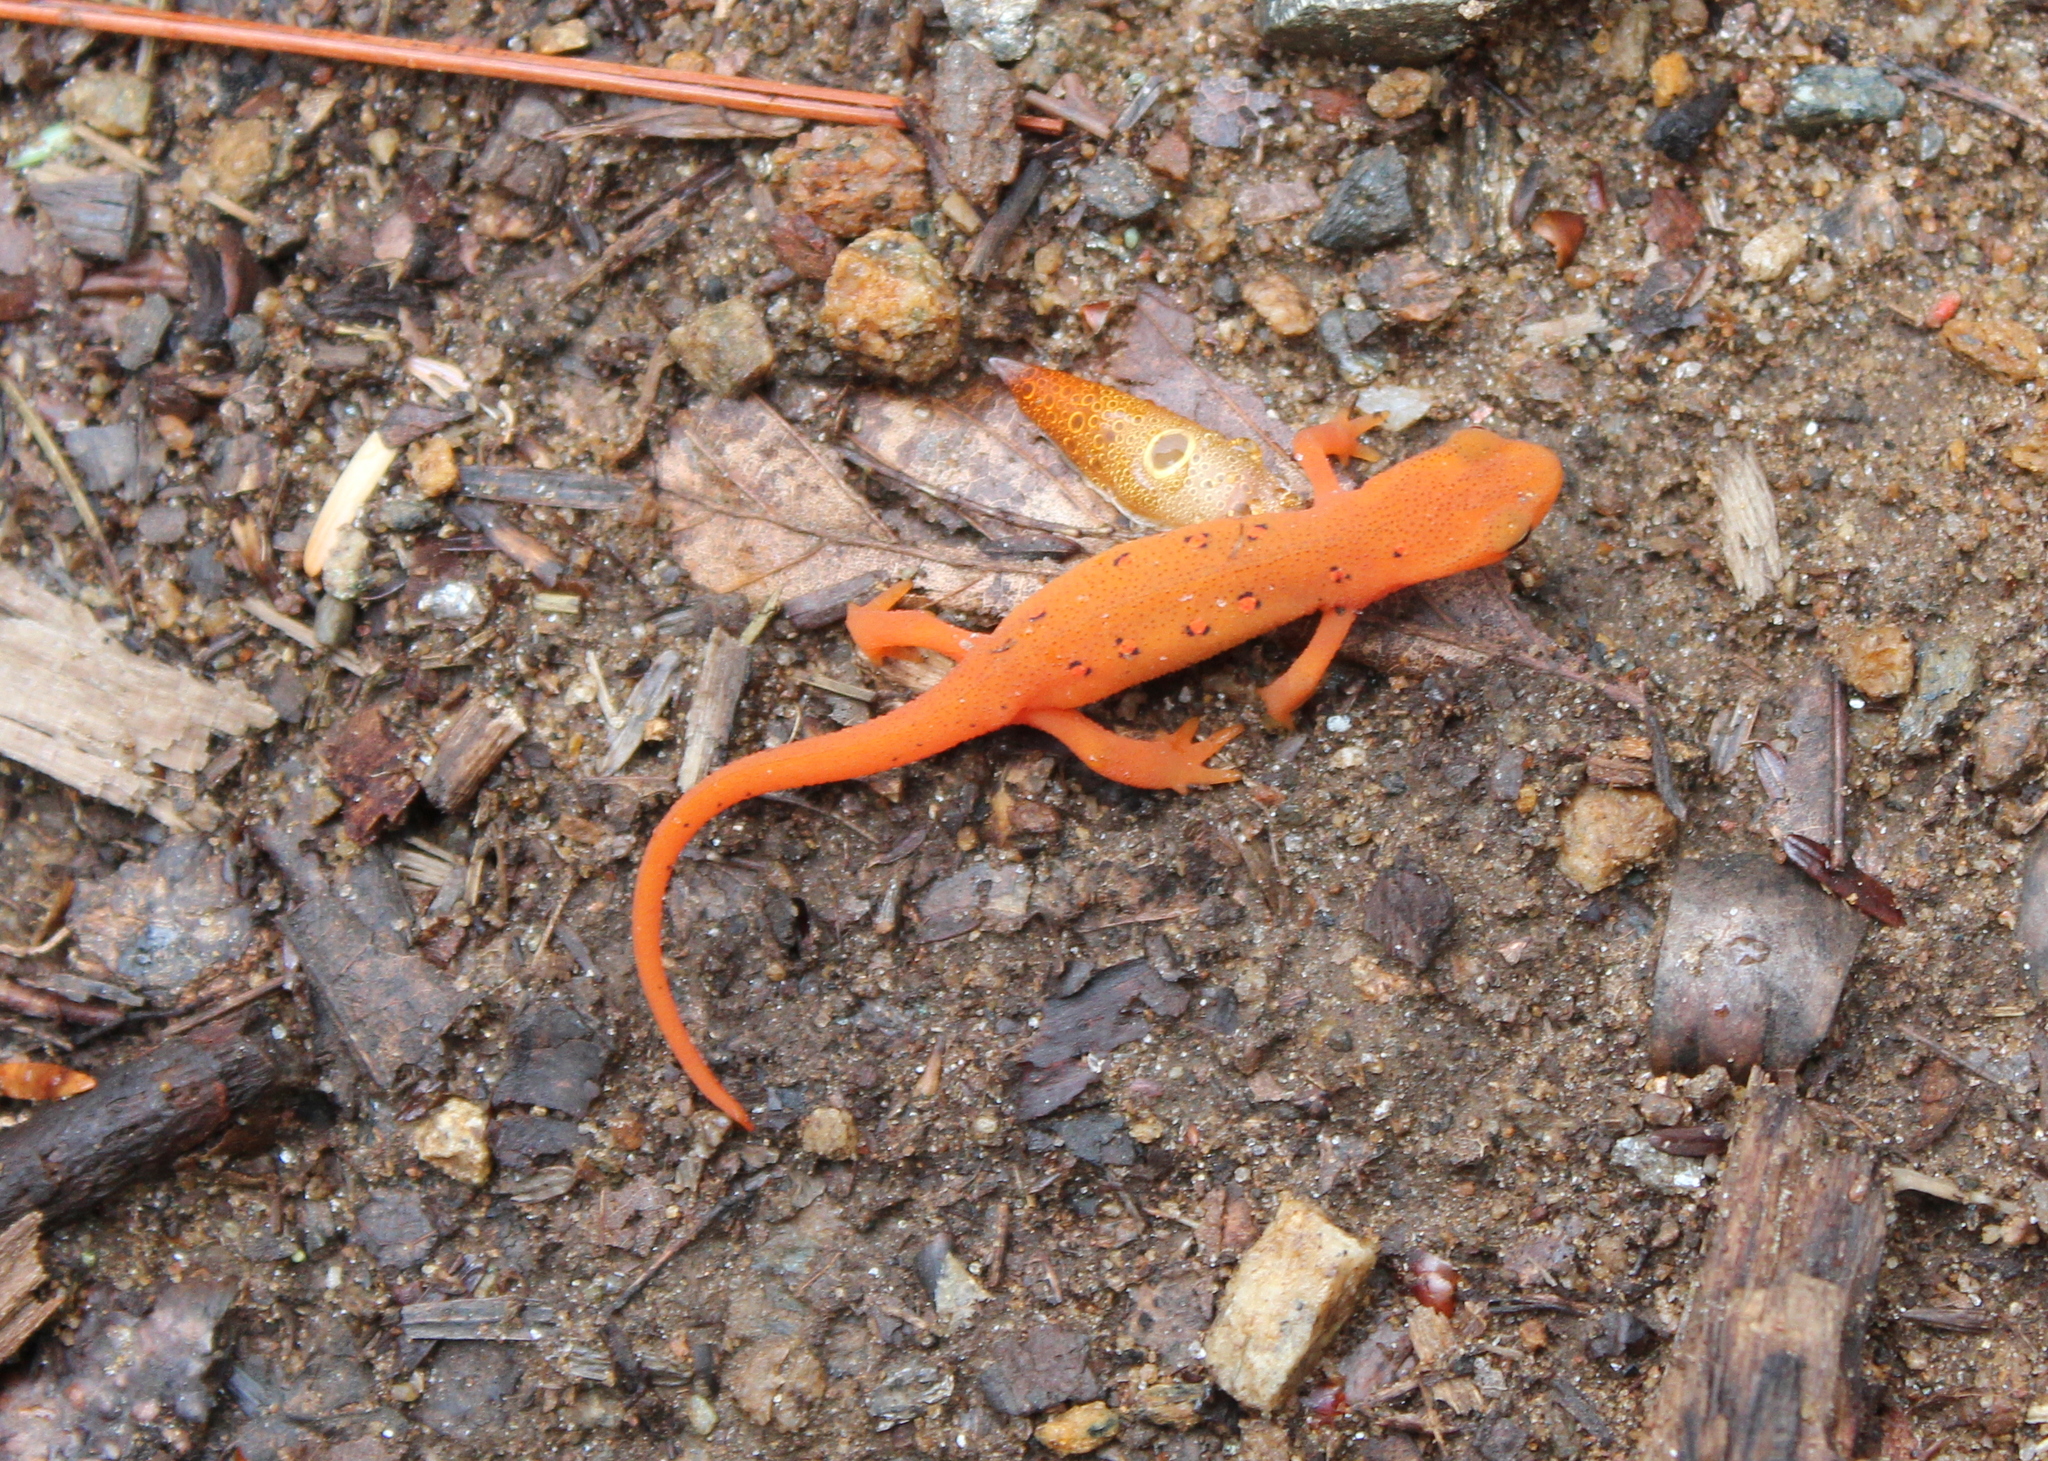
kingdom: Animalia
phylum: Chordata
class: Amphibia
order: Caudata
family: Salamandridae
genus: Notophthalmus
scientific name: Notophthalmus viridescens
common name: Eastern newt
